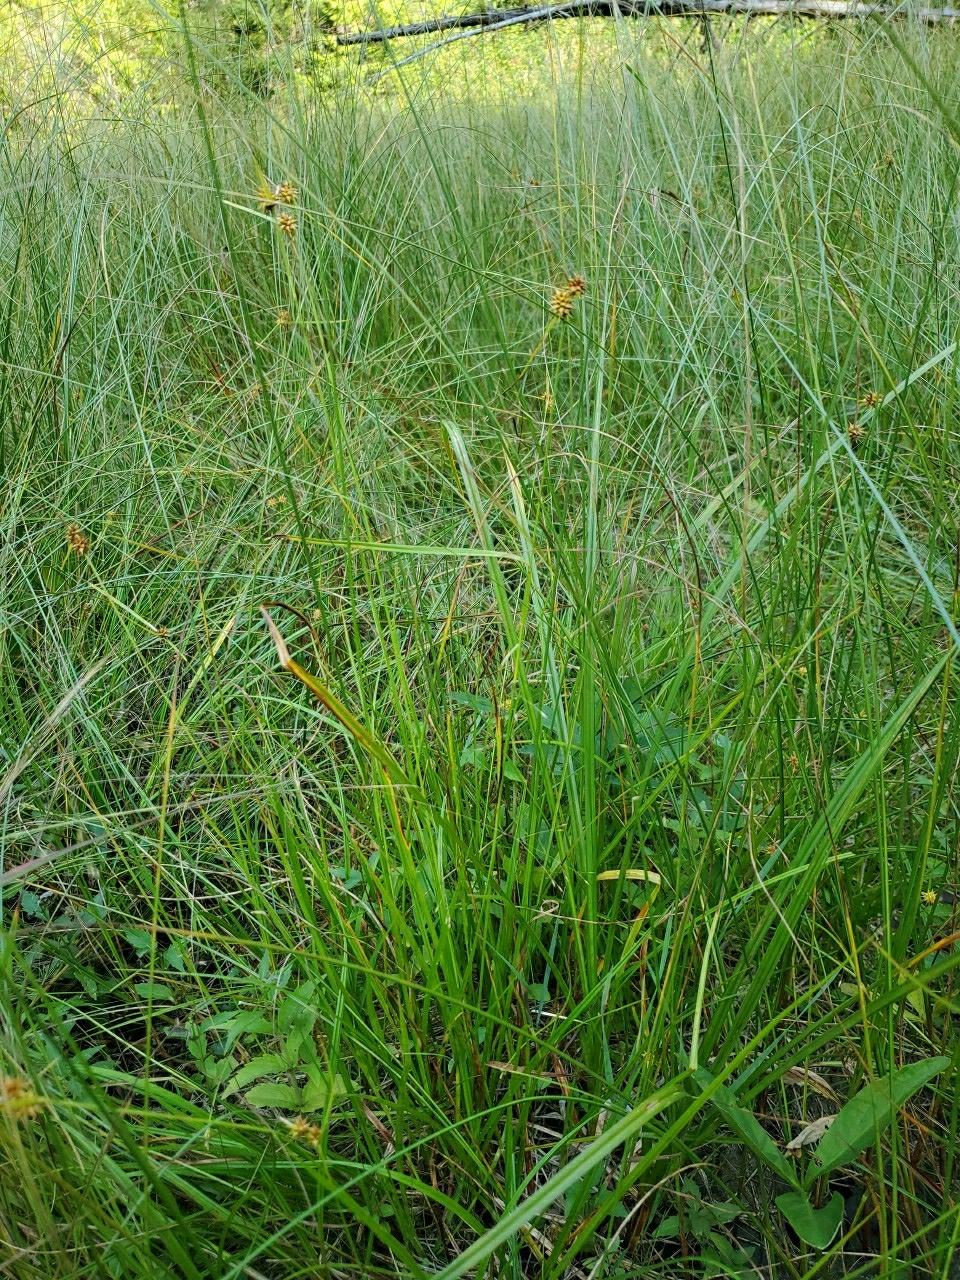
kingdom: Plantae
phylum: Tracheophyta
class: Liliopsida
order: Poales
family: Cyperaceae
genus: Carex
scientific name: Carex flava
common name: Large yellow-sedge
